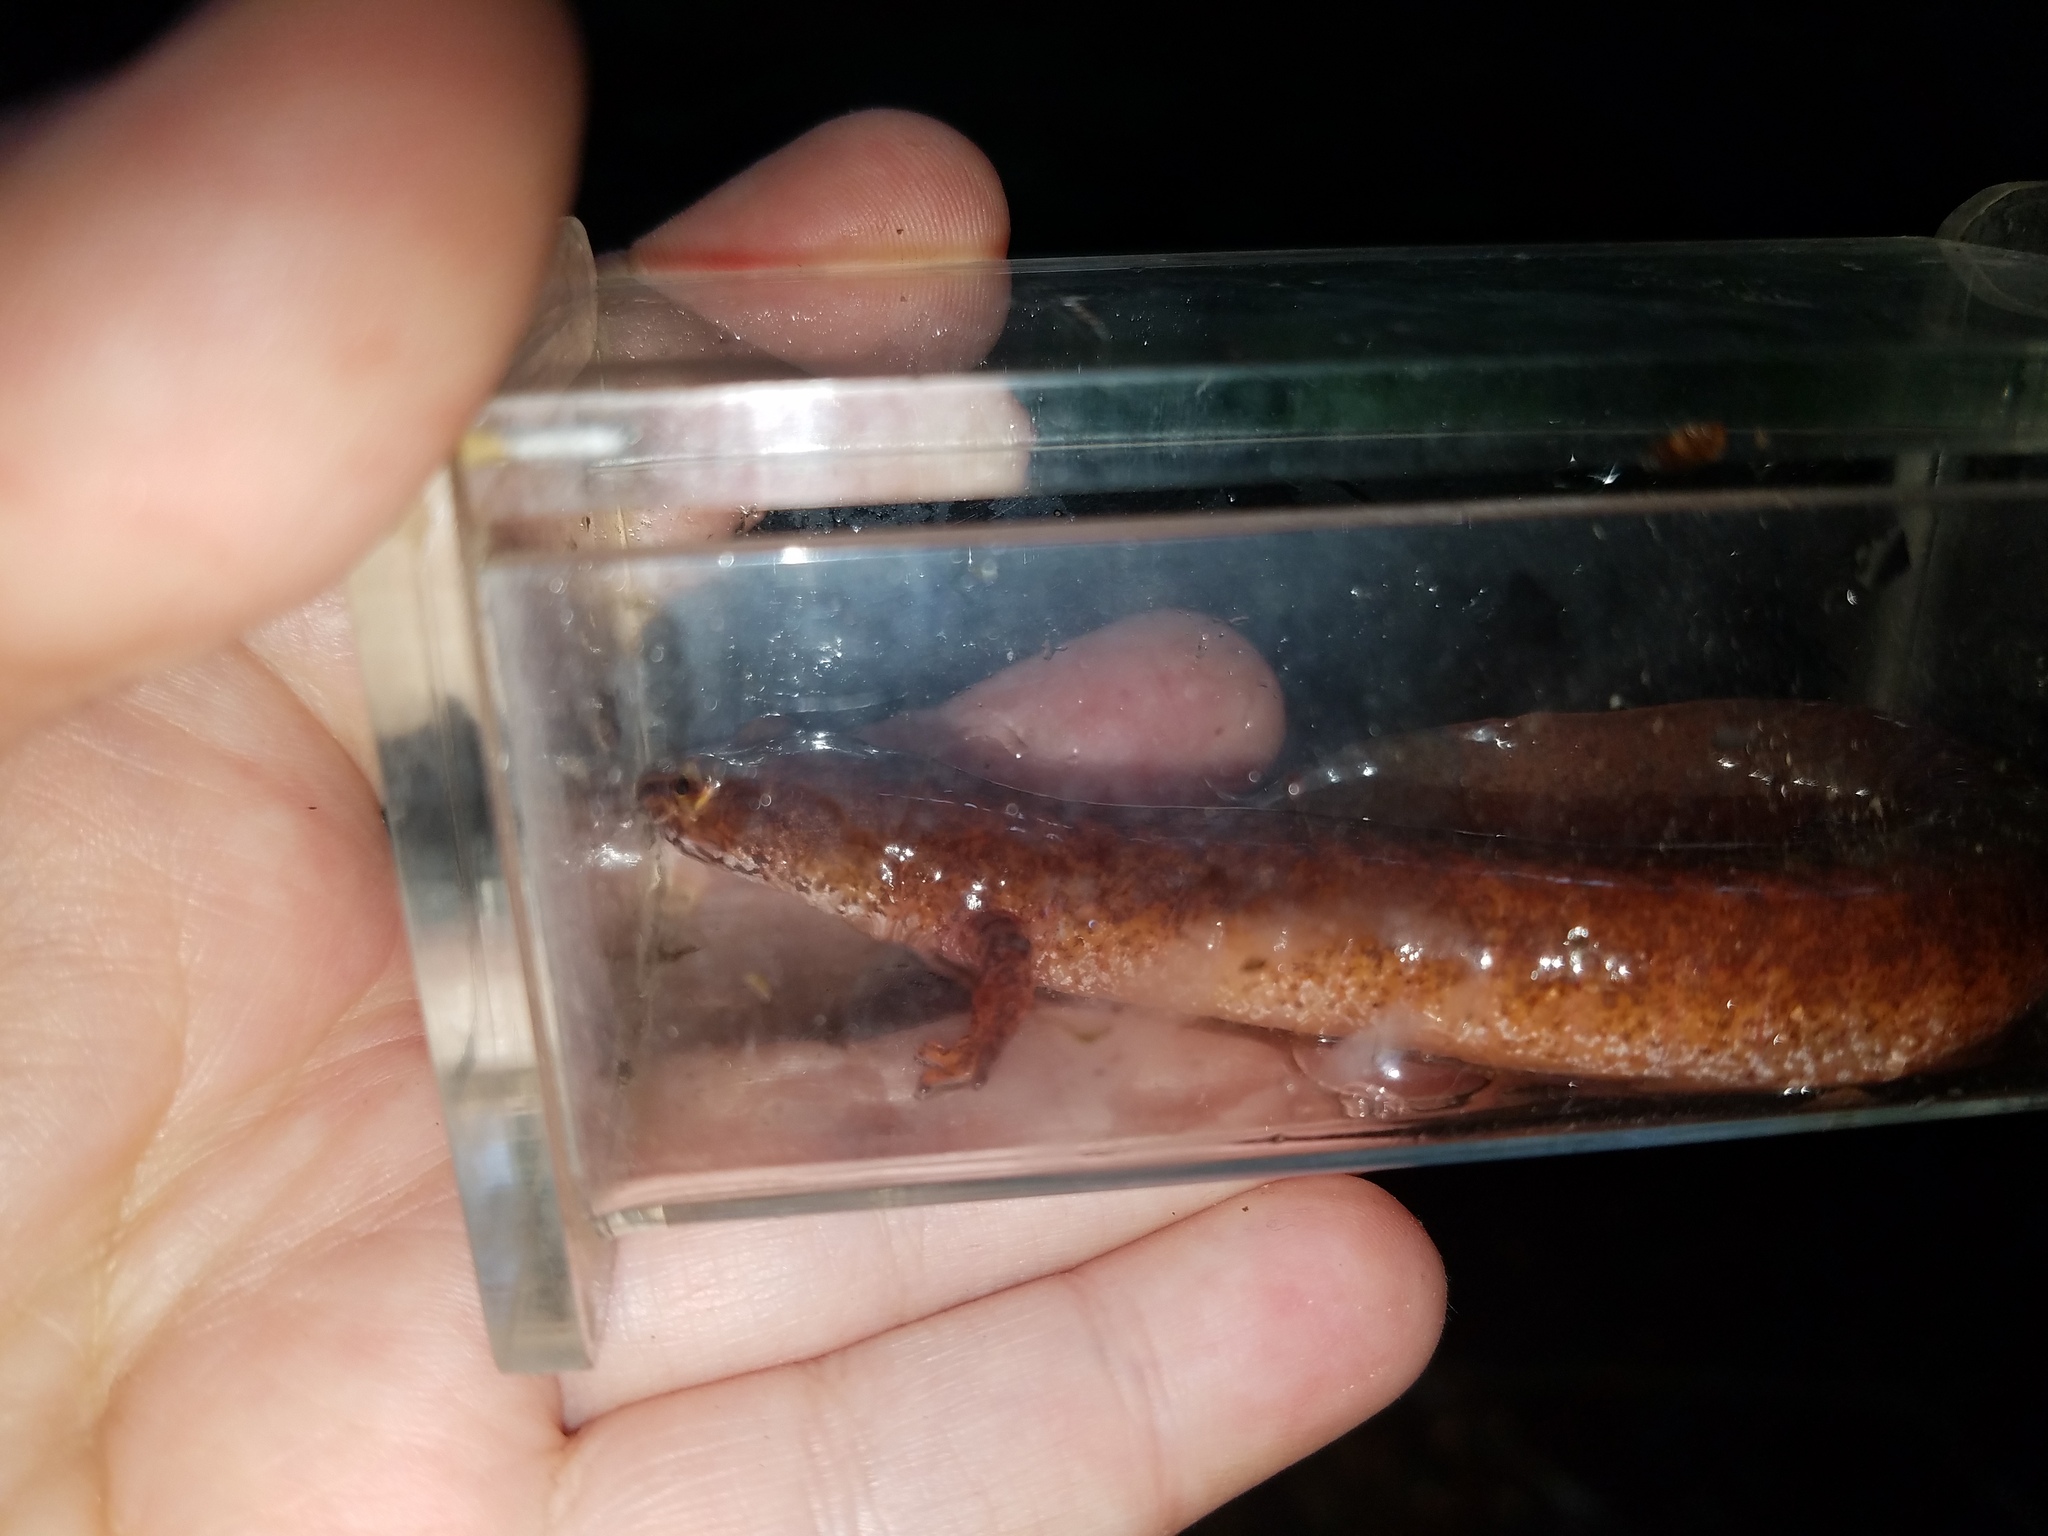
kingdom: Animalia
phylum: Chordata
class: Amphibia
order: Caudata
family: Plethodontidae
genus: Gyrinophilus
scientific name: Gyrinophilus porphyriticus
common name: Spring salamander
